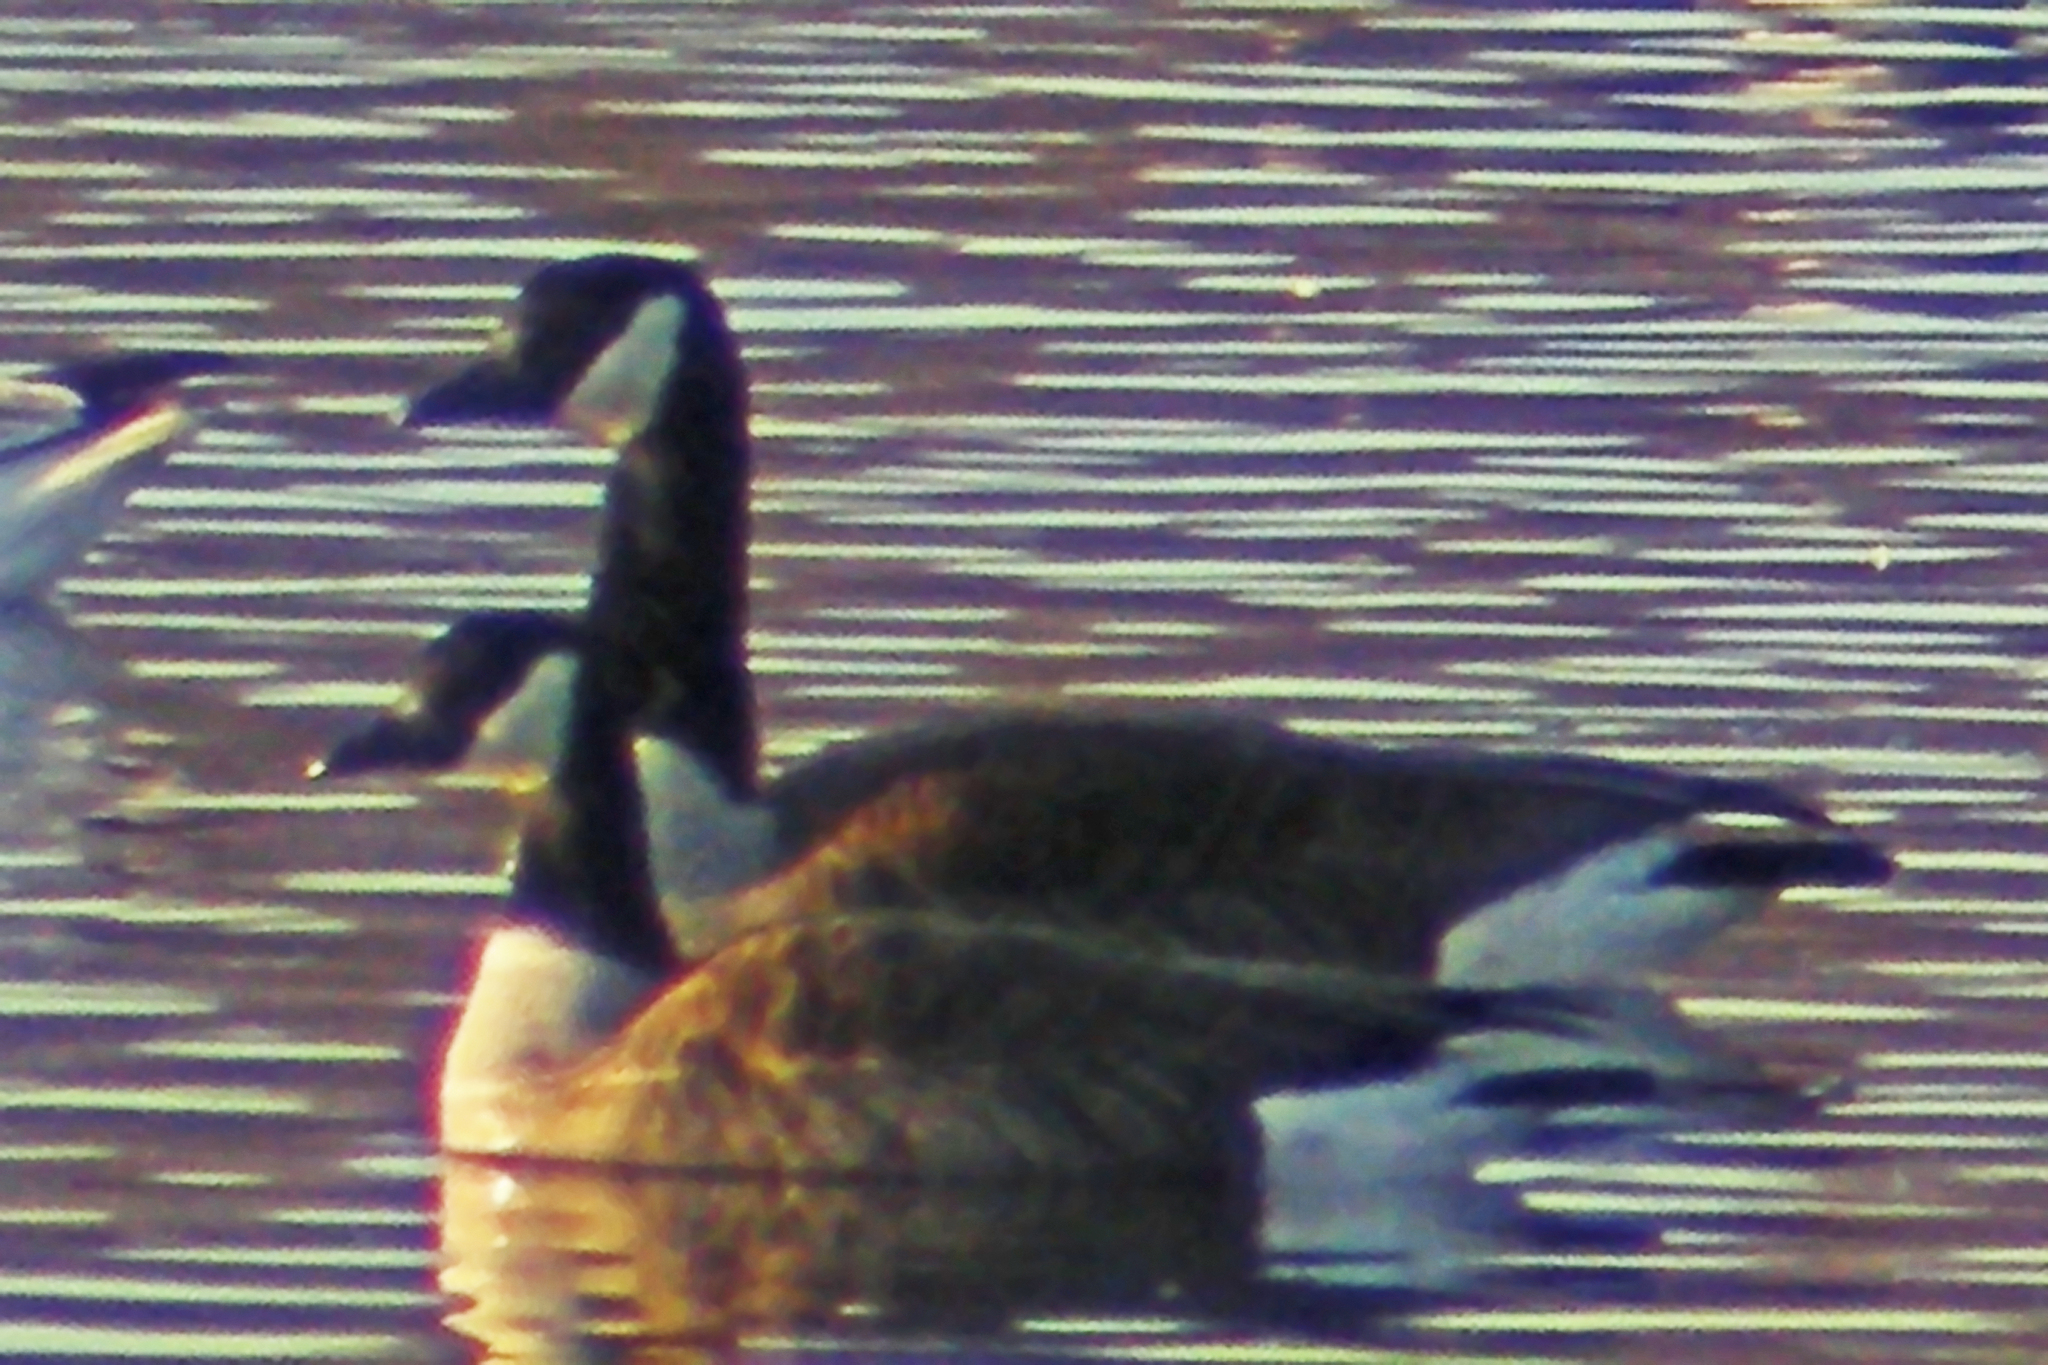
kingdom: Animalia
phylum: Chordata
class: Aves
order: Anseriformes
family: Anatidae
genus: Branta
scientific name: Branta canadensis
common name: Canada goose
